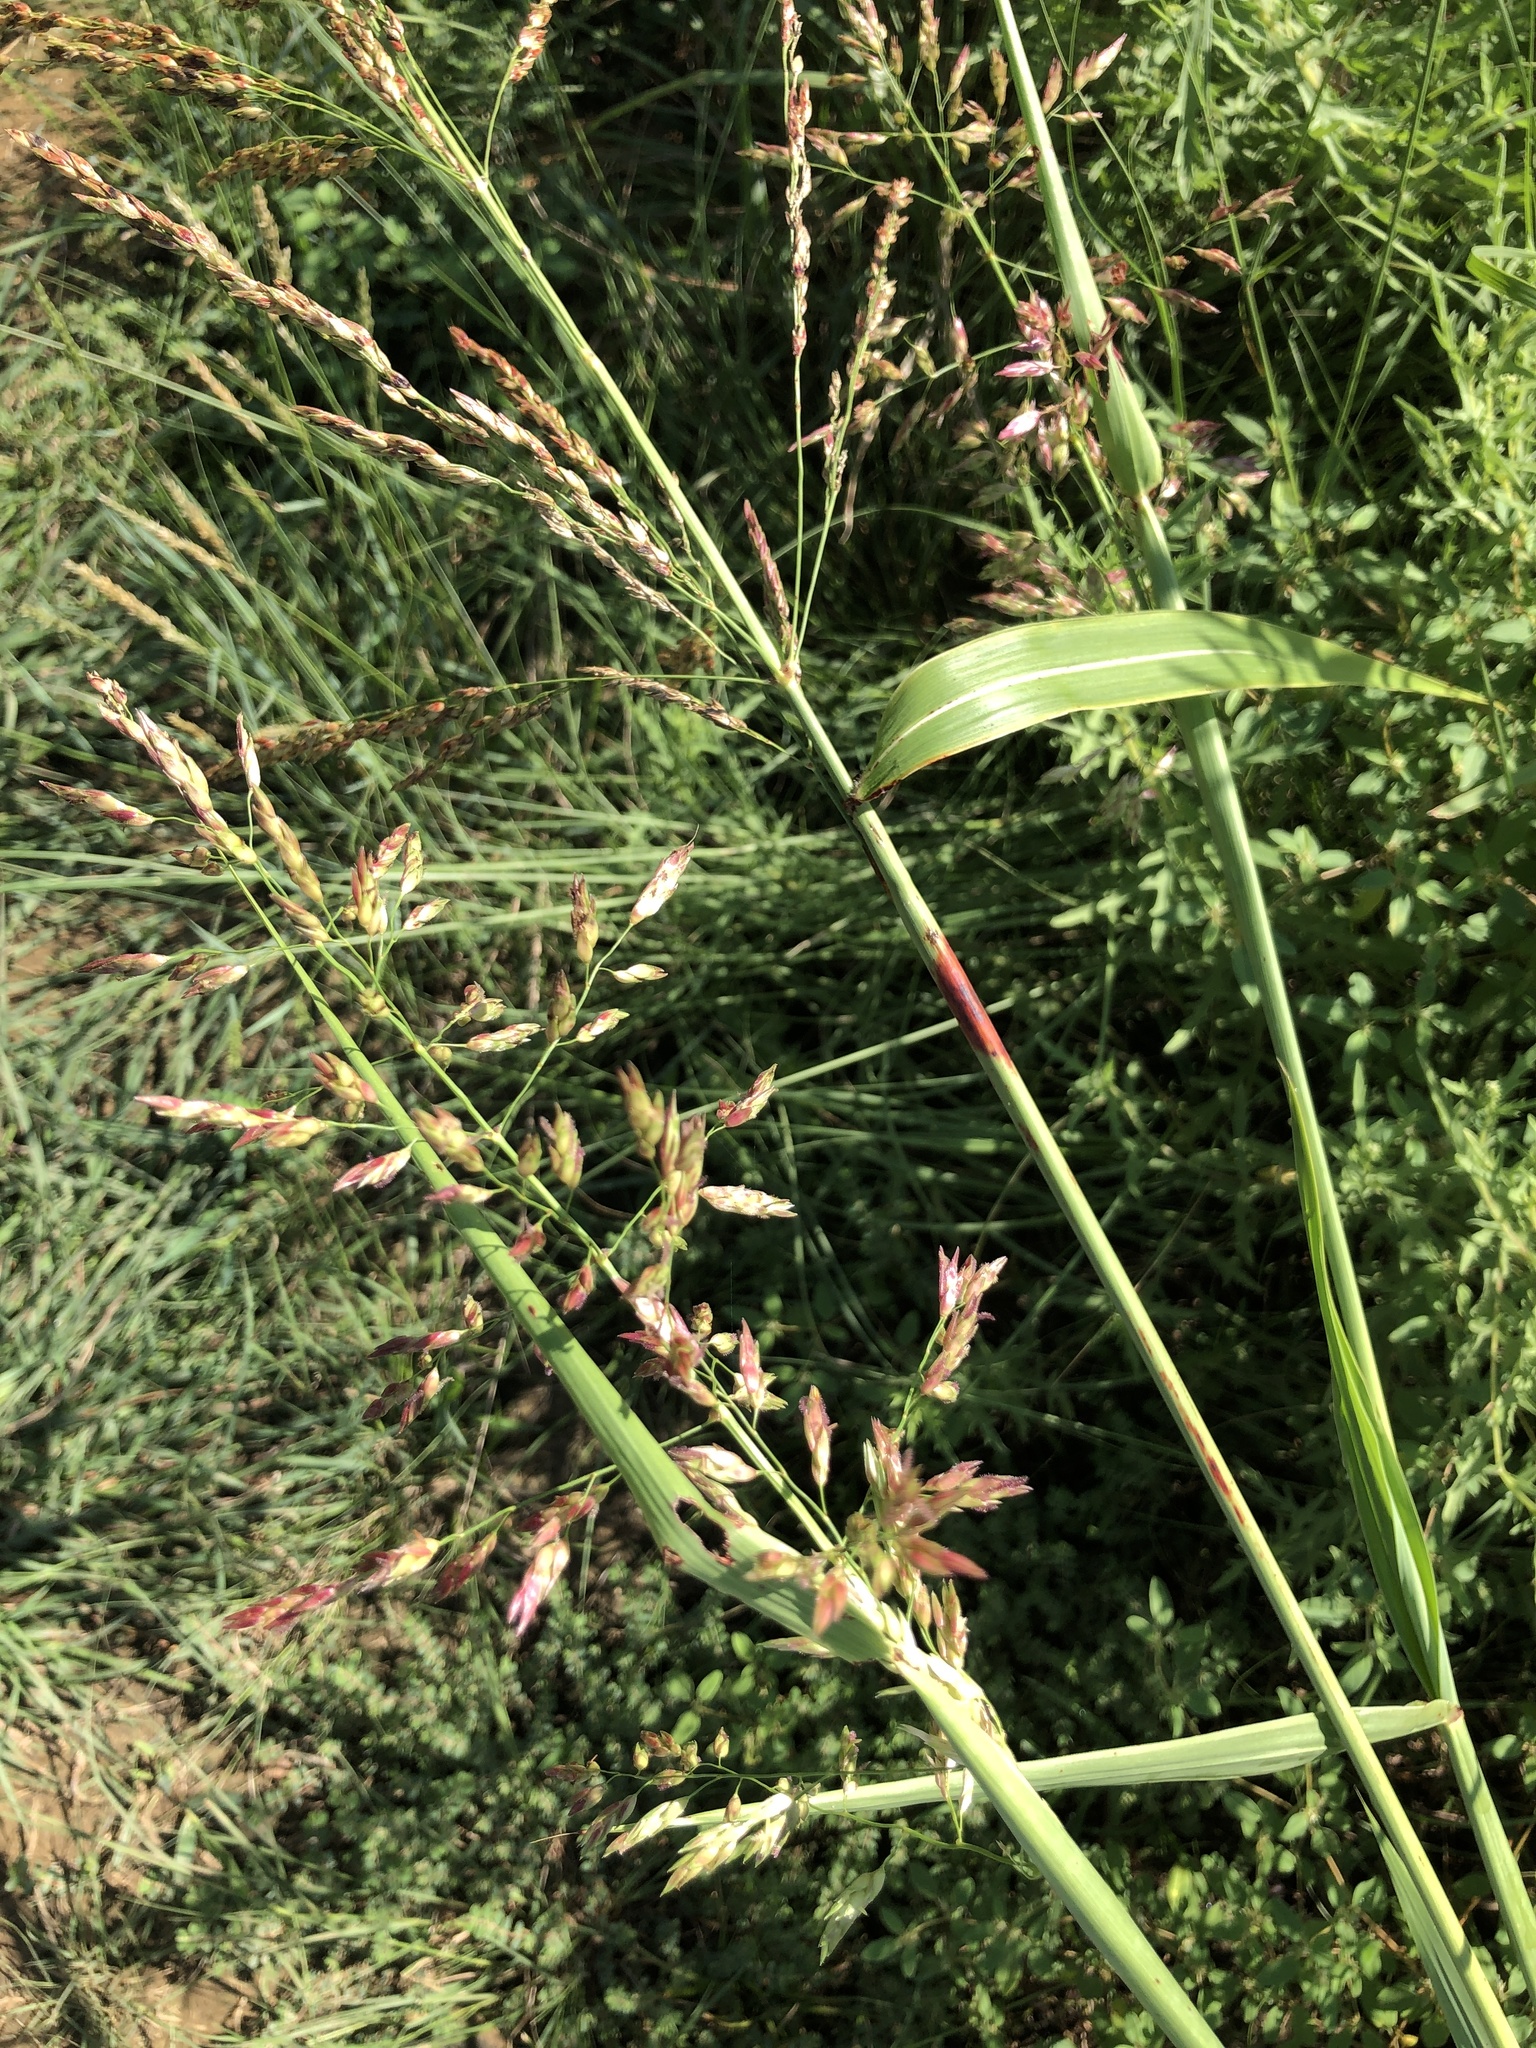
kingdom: Plantae
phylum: Tracheophyta
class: Liliopsida
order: Poales
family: Poaceae
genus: Sorghum
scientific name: Sorghum halepense
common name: Johnson-grass
